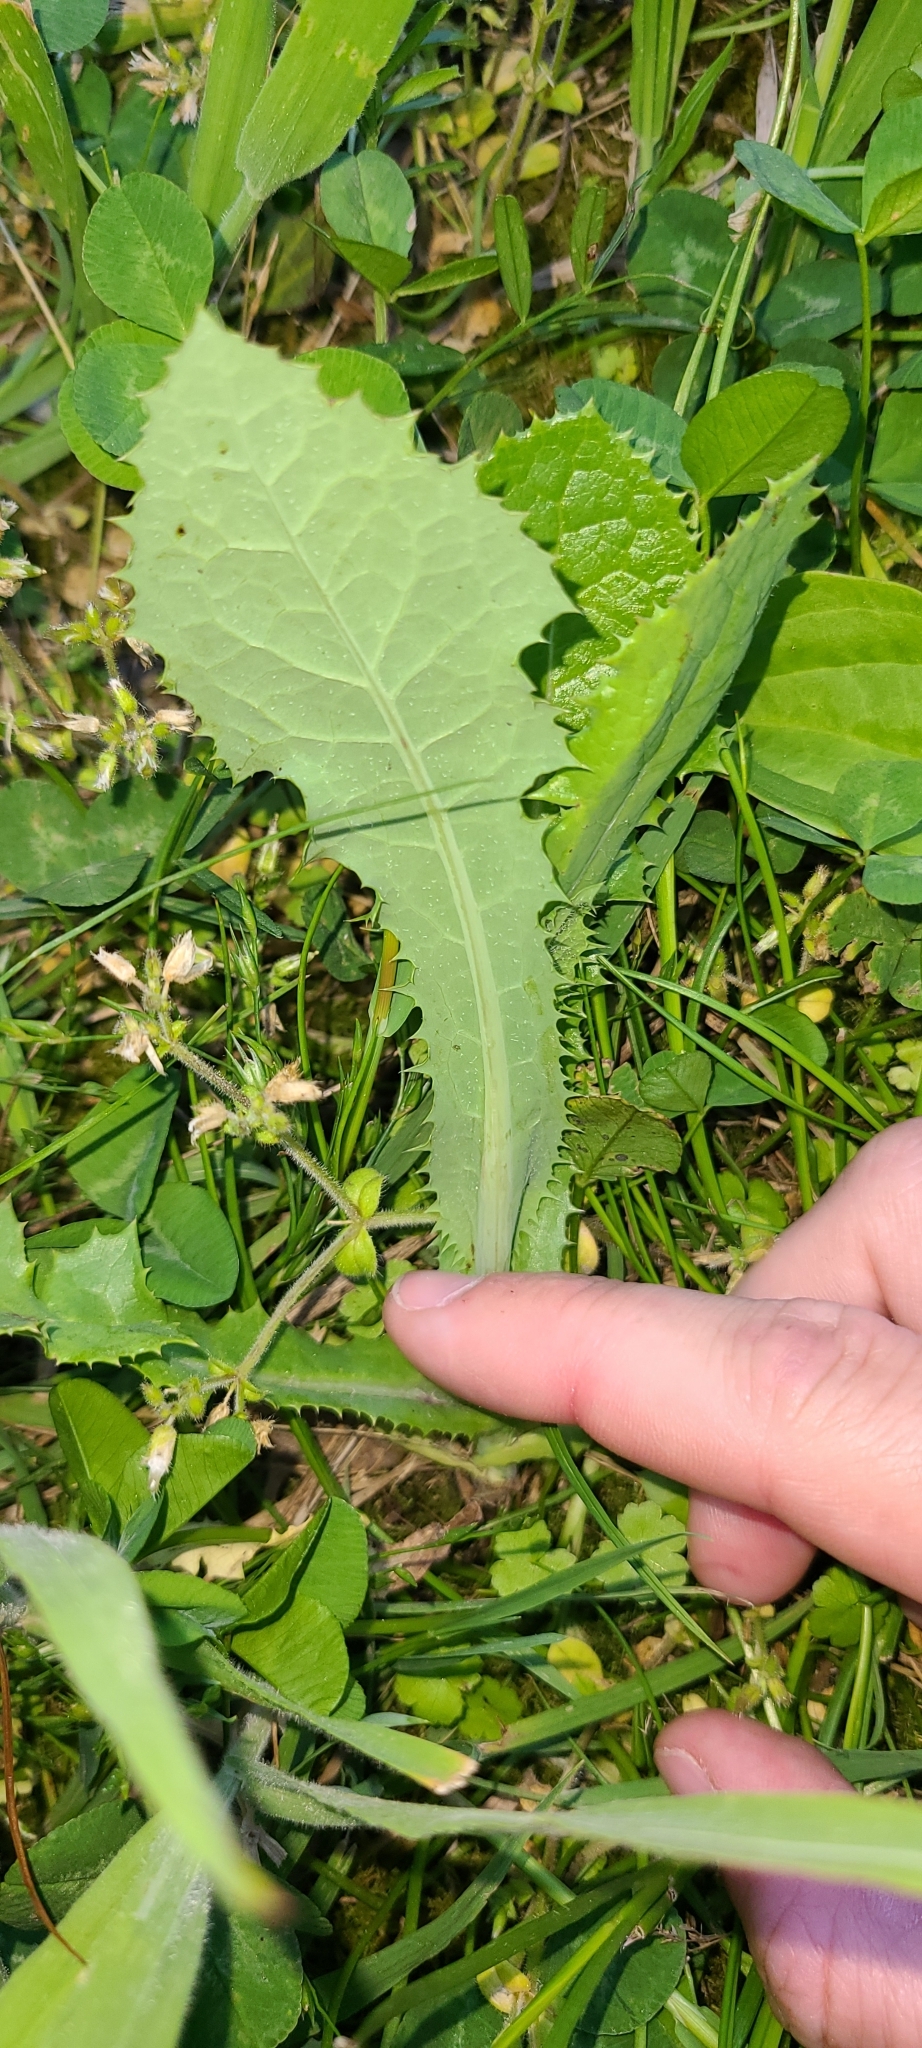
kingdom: Plantae
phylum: Tracheophyta
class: Magnoliopsida
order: Asterales
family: Asteraceae
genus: Sonchus
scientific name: Sonchus oleraceus
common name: Common sowthistle
